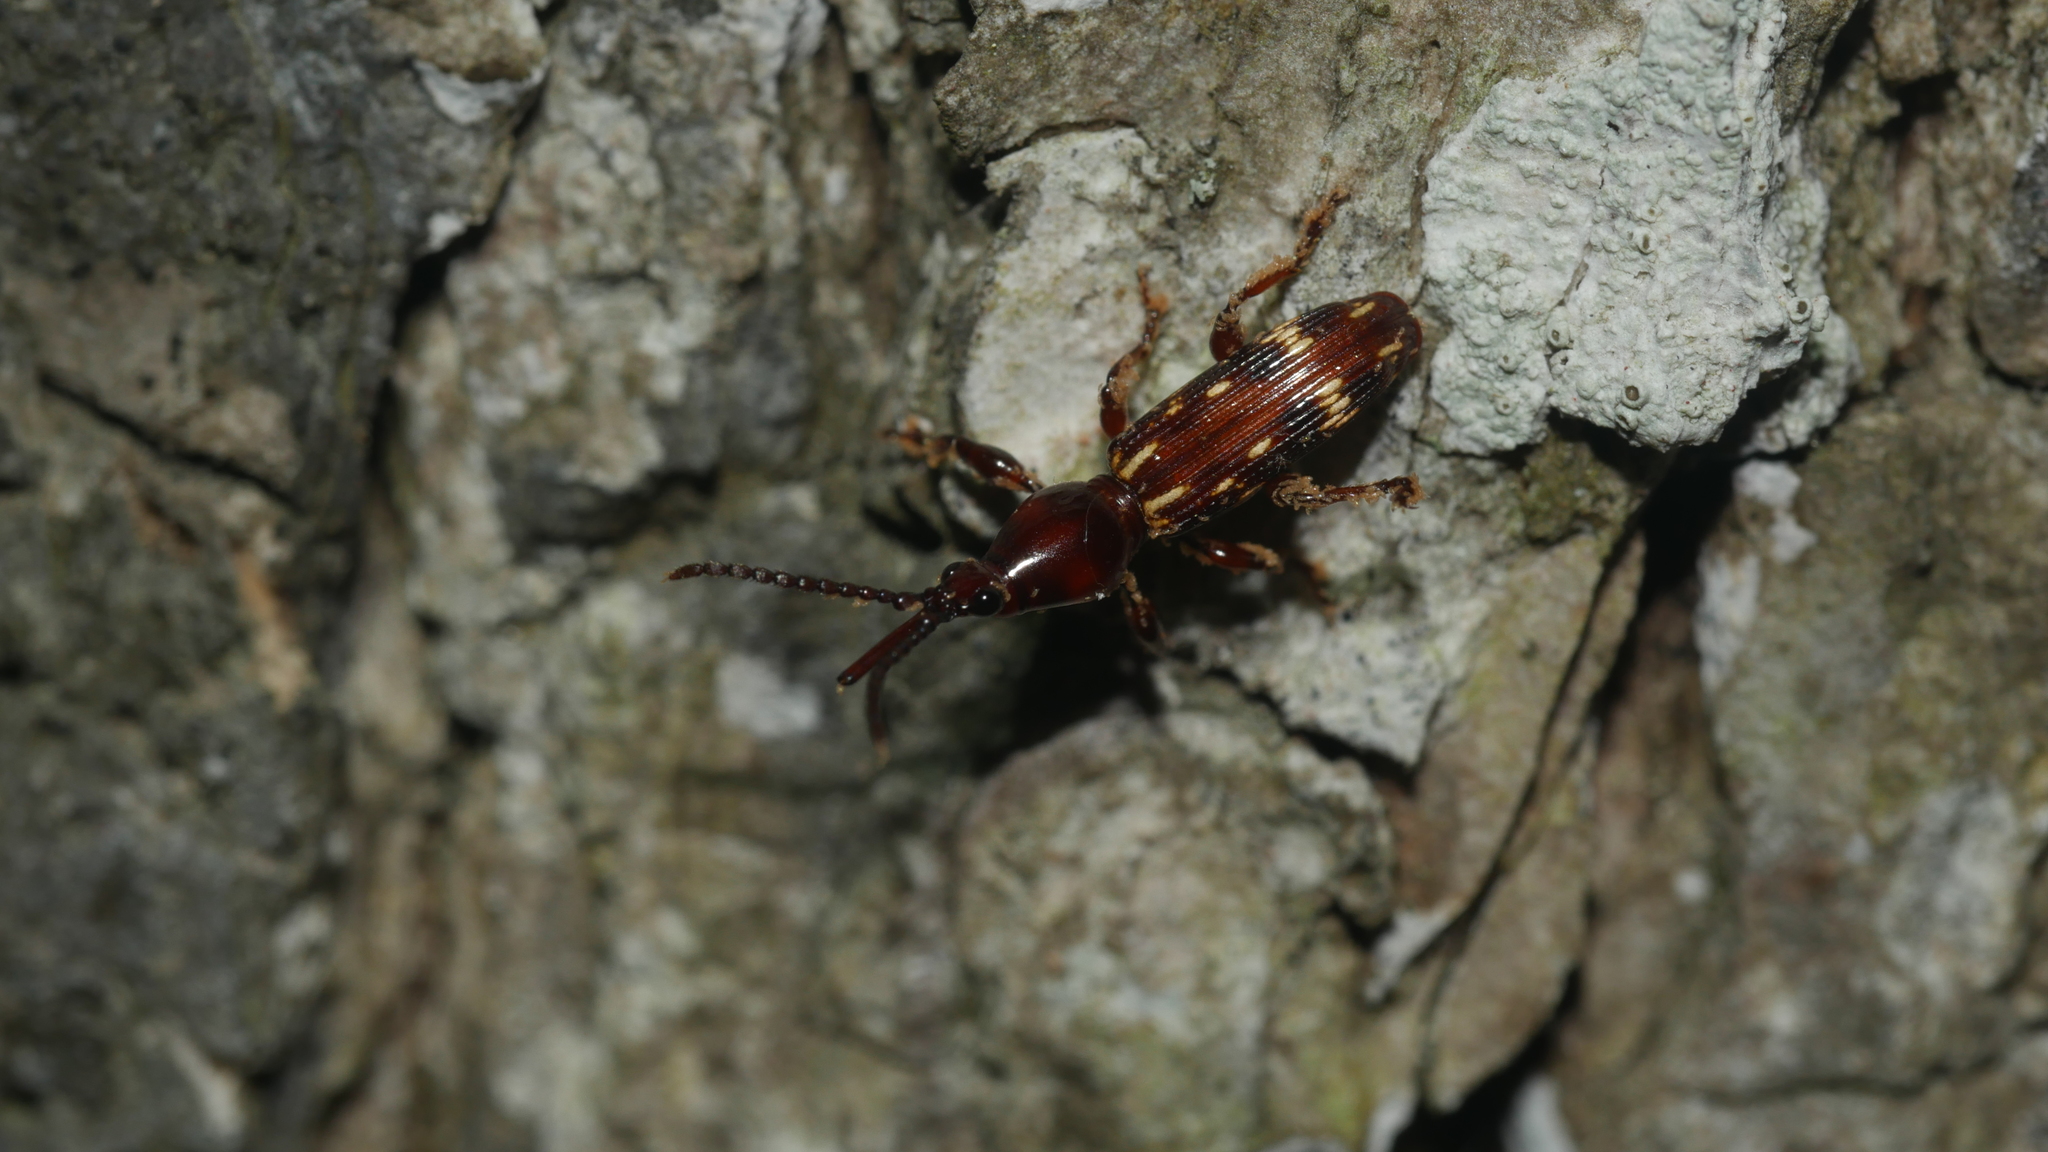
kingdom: Animalia
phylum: Arthropoda
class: Insecta
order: Coleoptera
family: Brentidae
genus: Arrenodes
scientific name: Arrenodes minutus
